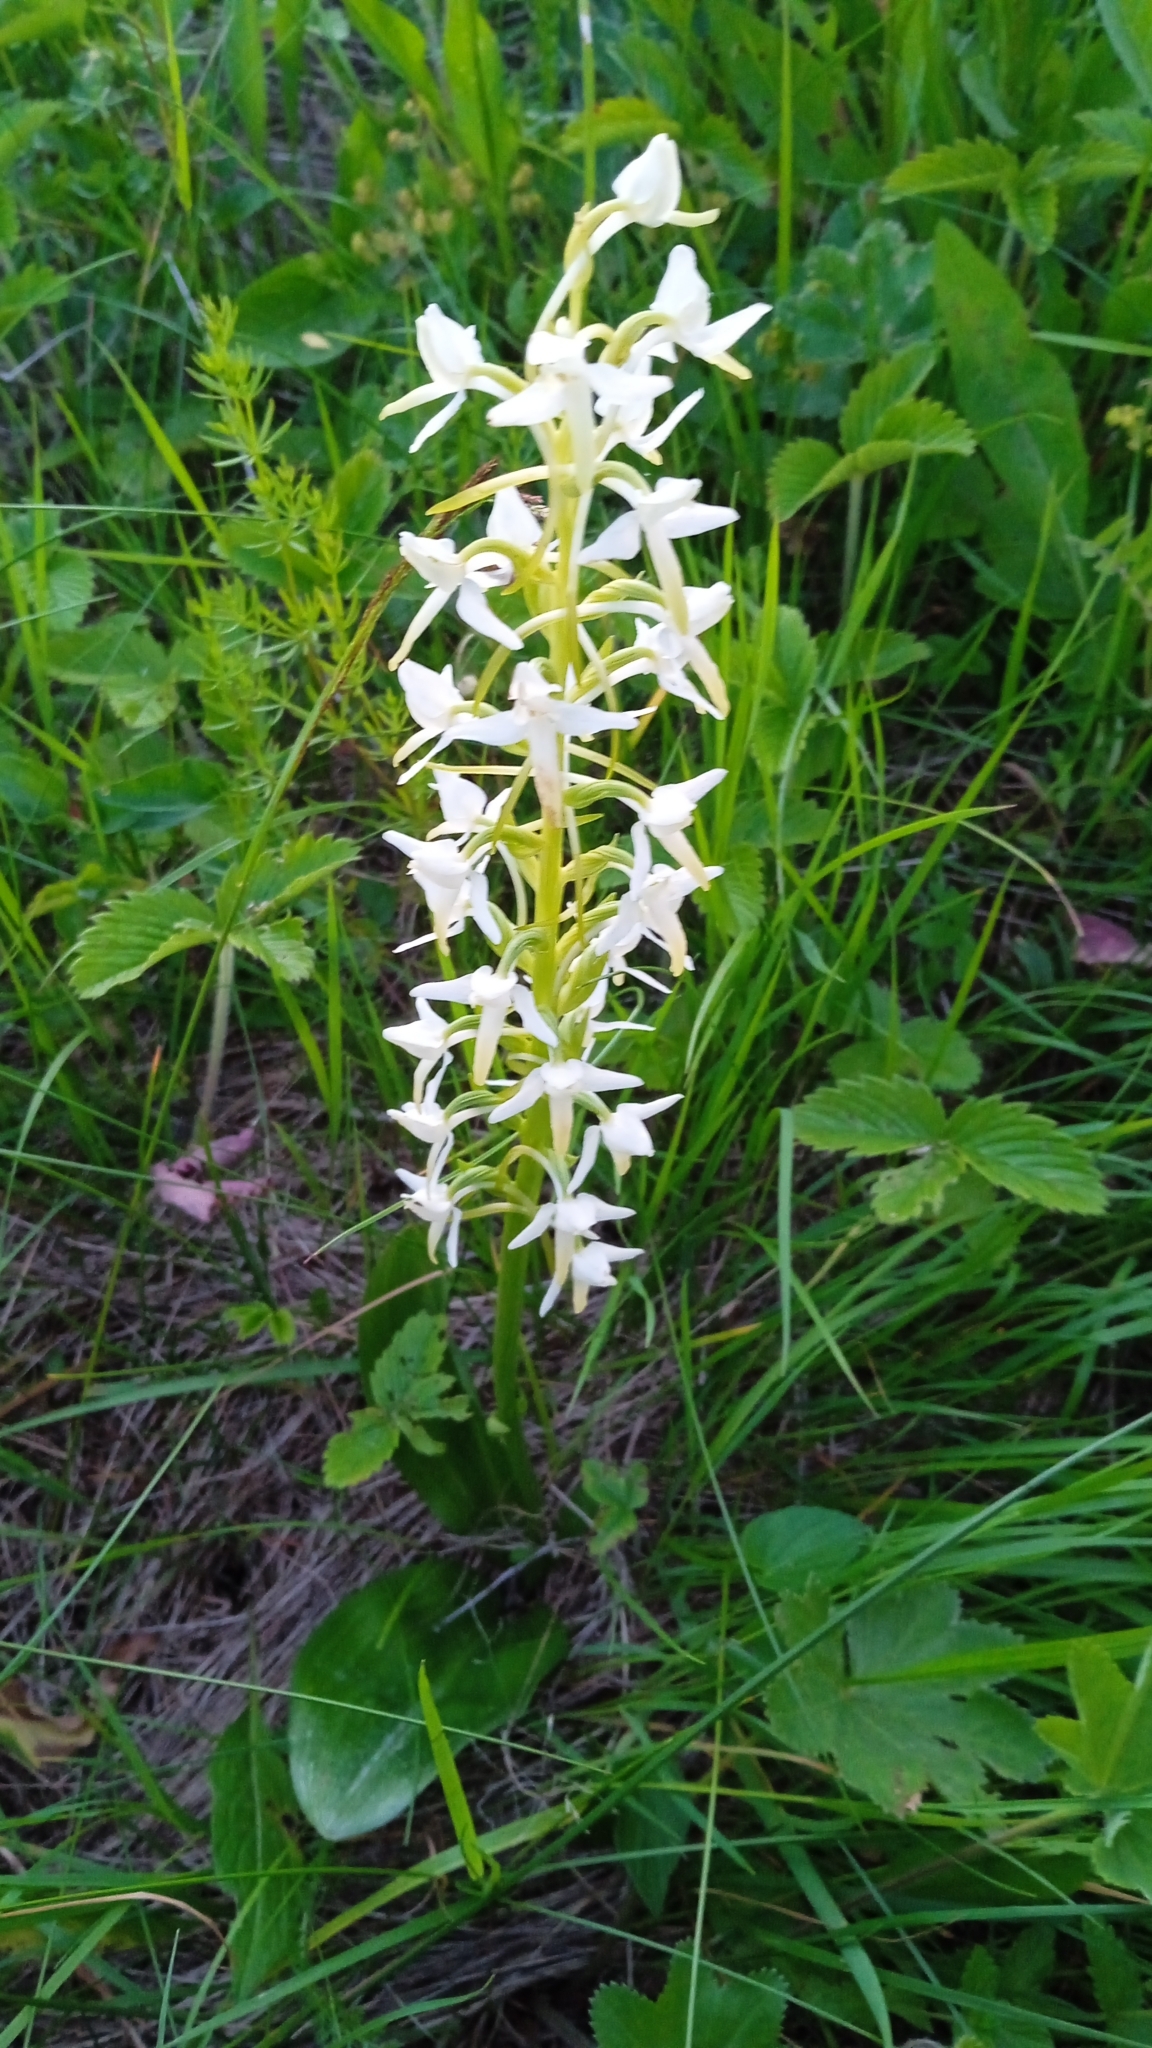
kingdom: Plantae
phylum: Tracheophyta
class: Liliopsida
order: Asparagales
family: Orchidaceae
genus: Platanthera
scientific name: Platanthera bifolia
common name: Lesser butterfly-orchid
